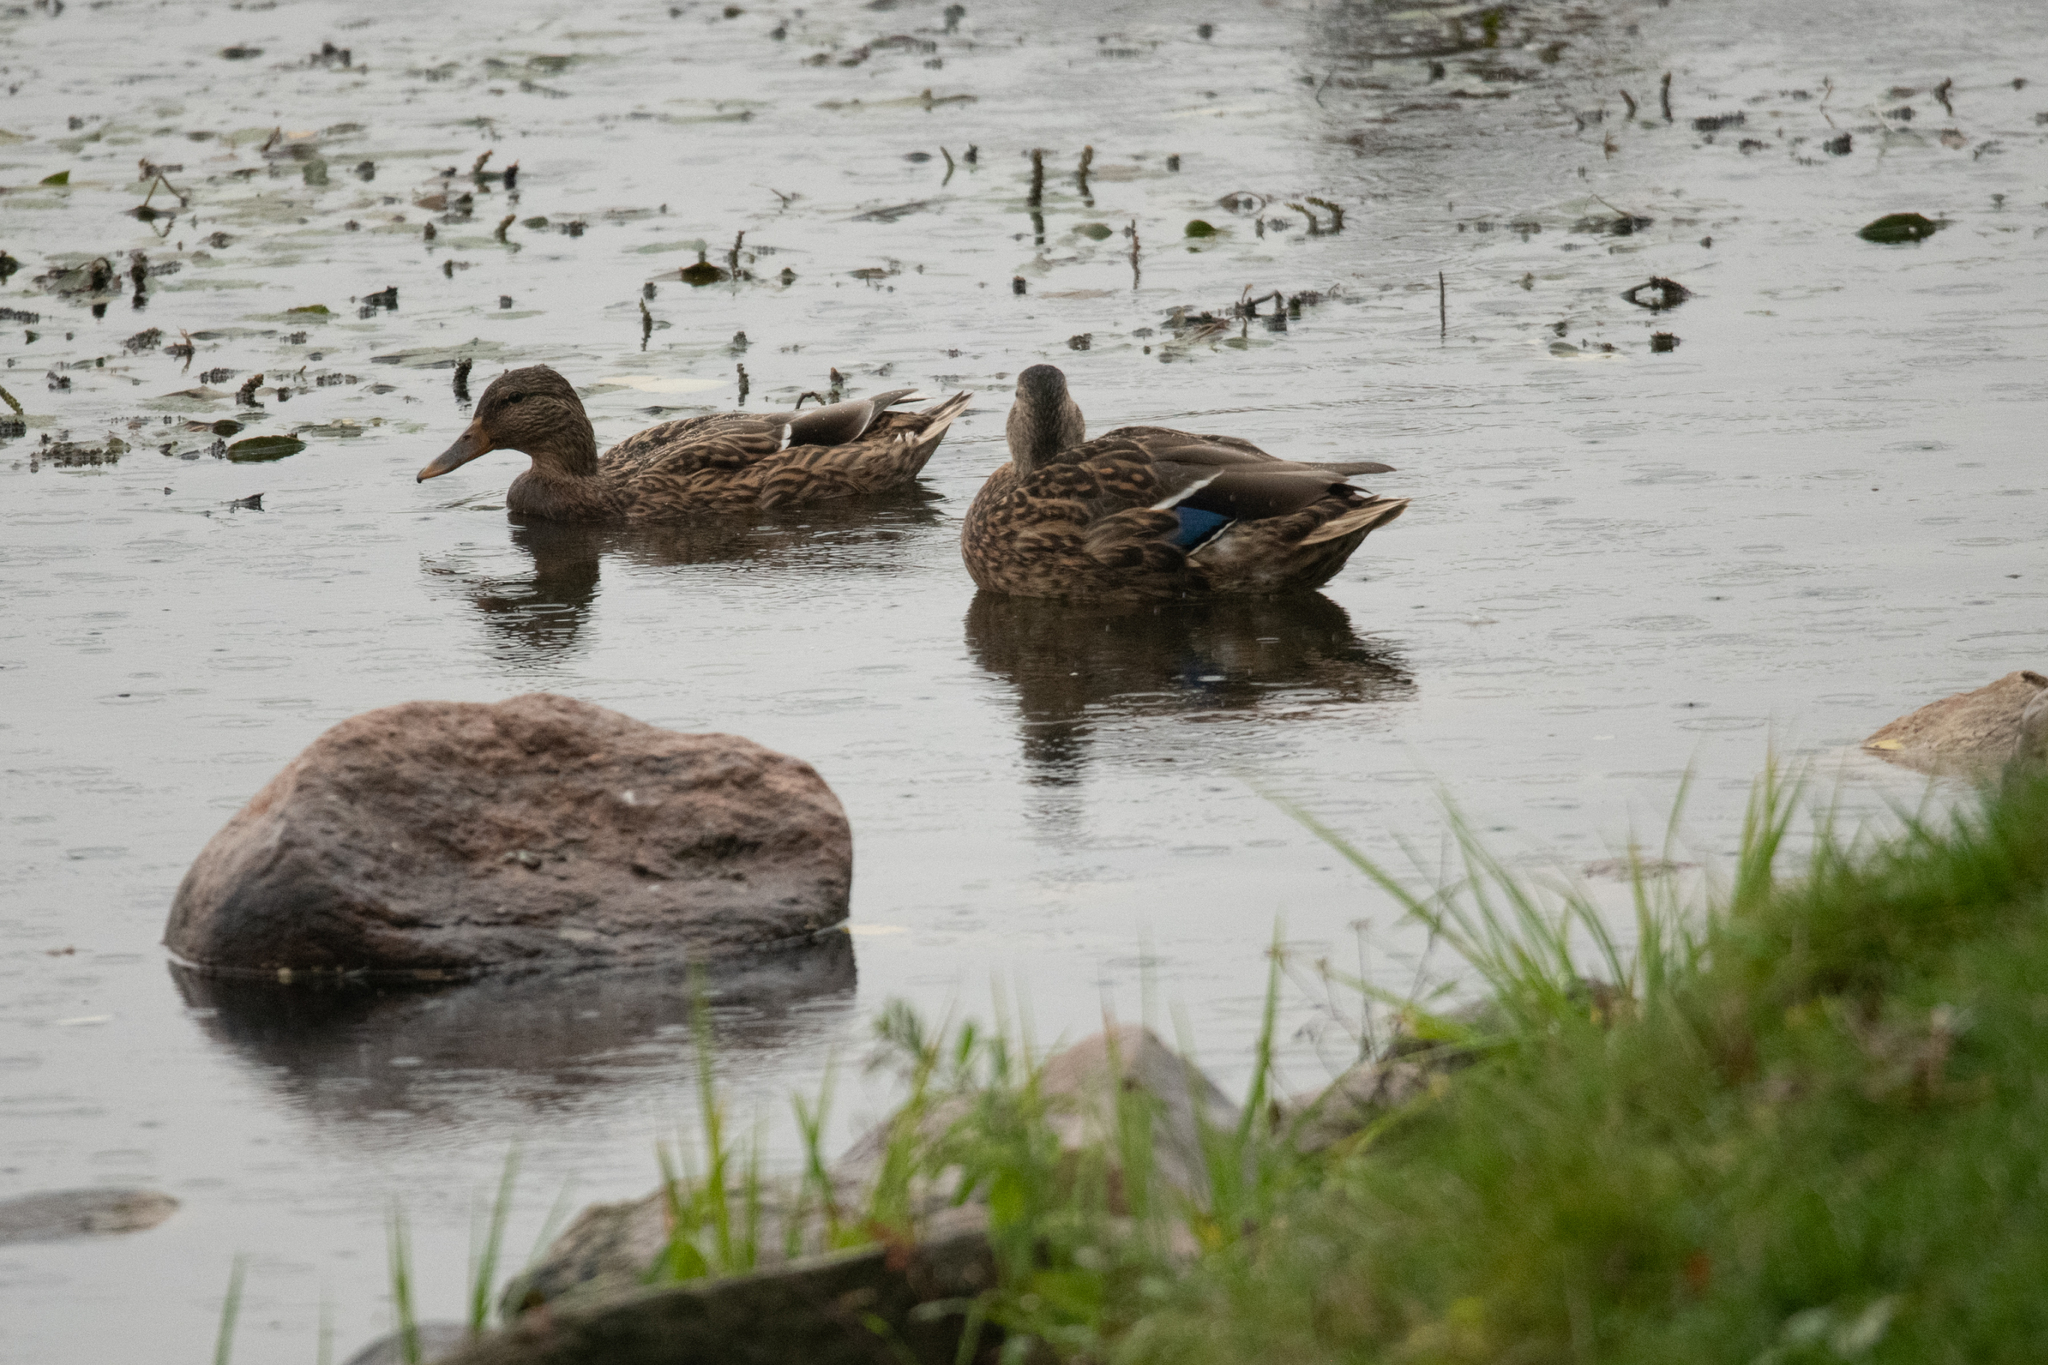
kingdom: Animalia
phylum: Chordata
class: Aves
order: Anseriformes
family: Anatidae
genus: Anas
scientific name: Anas platyrhynchos
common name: Mallard
